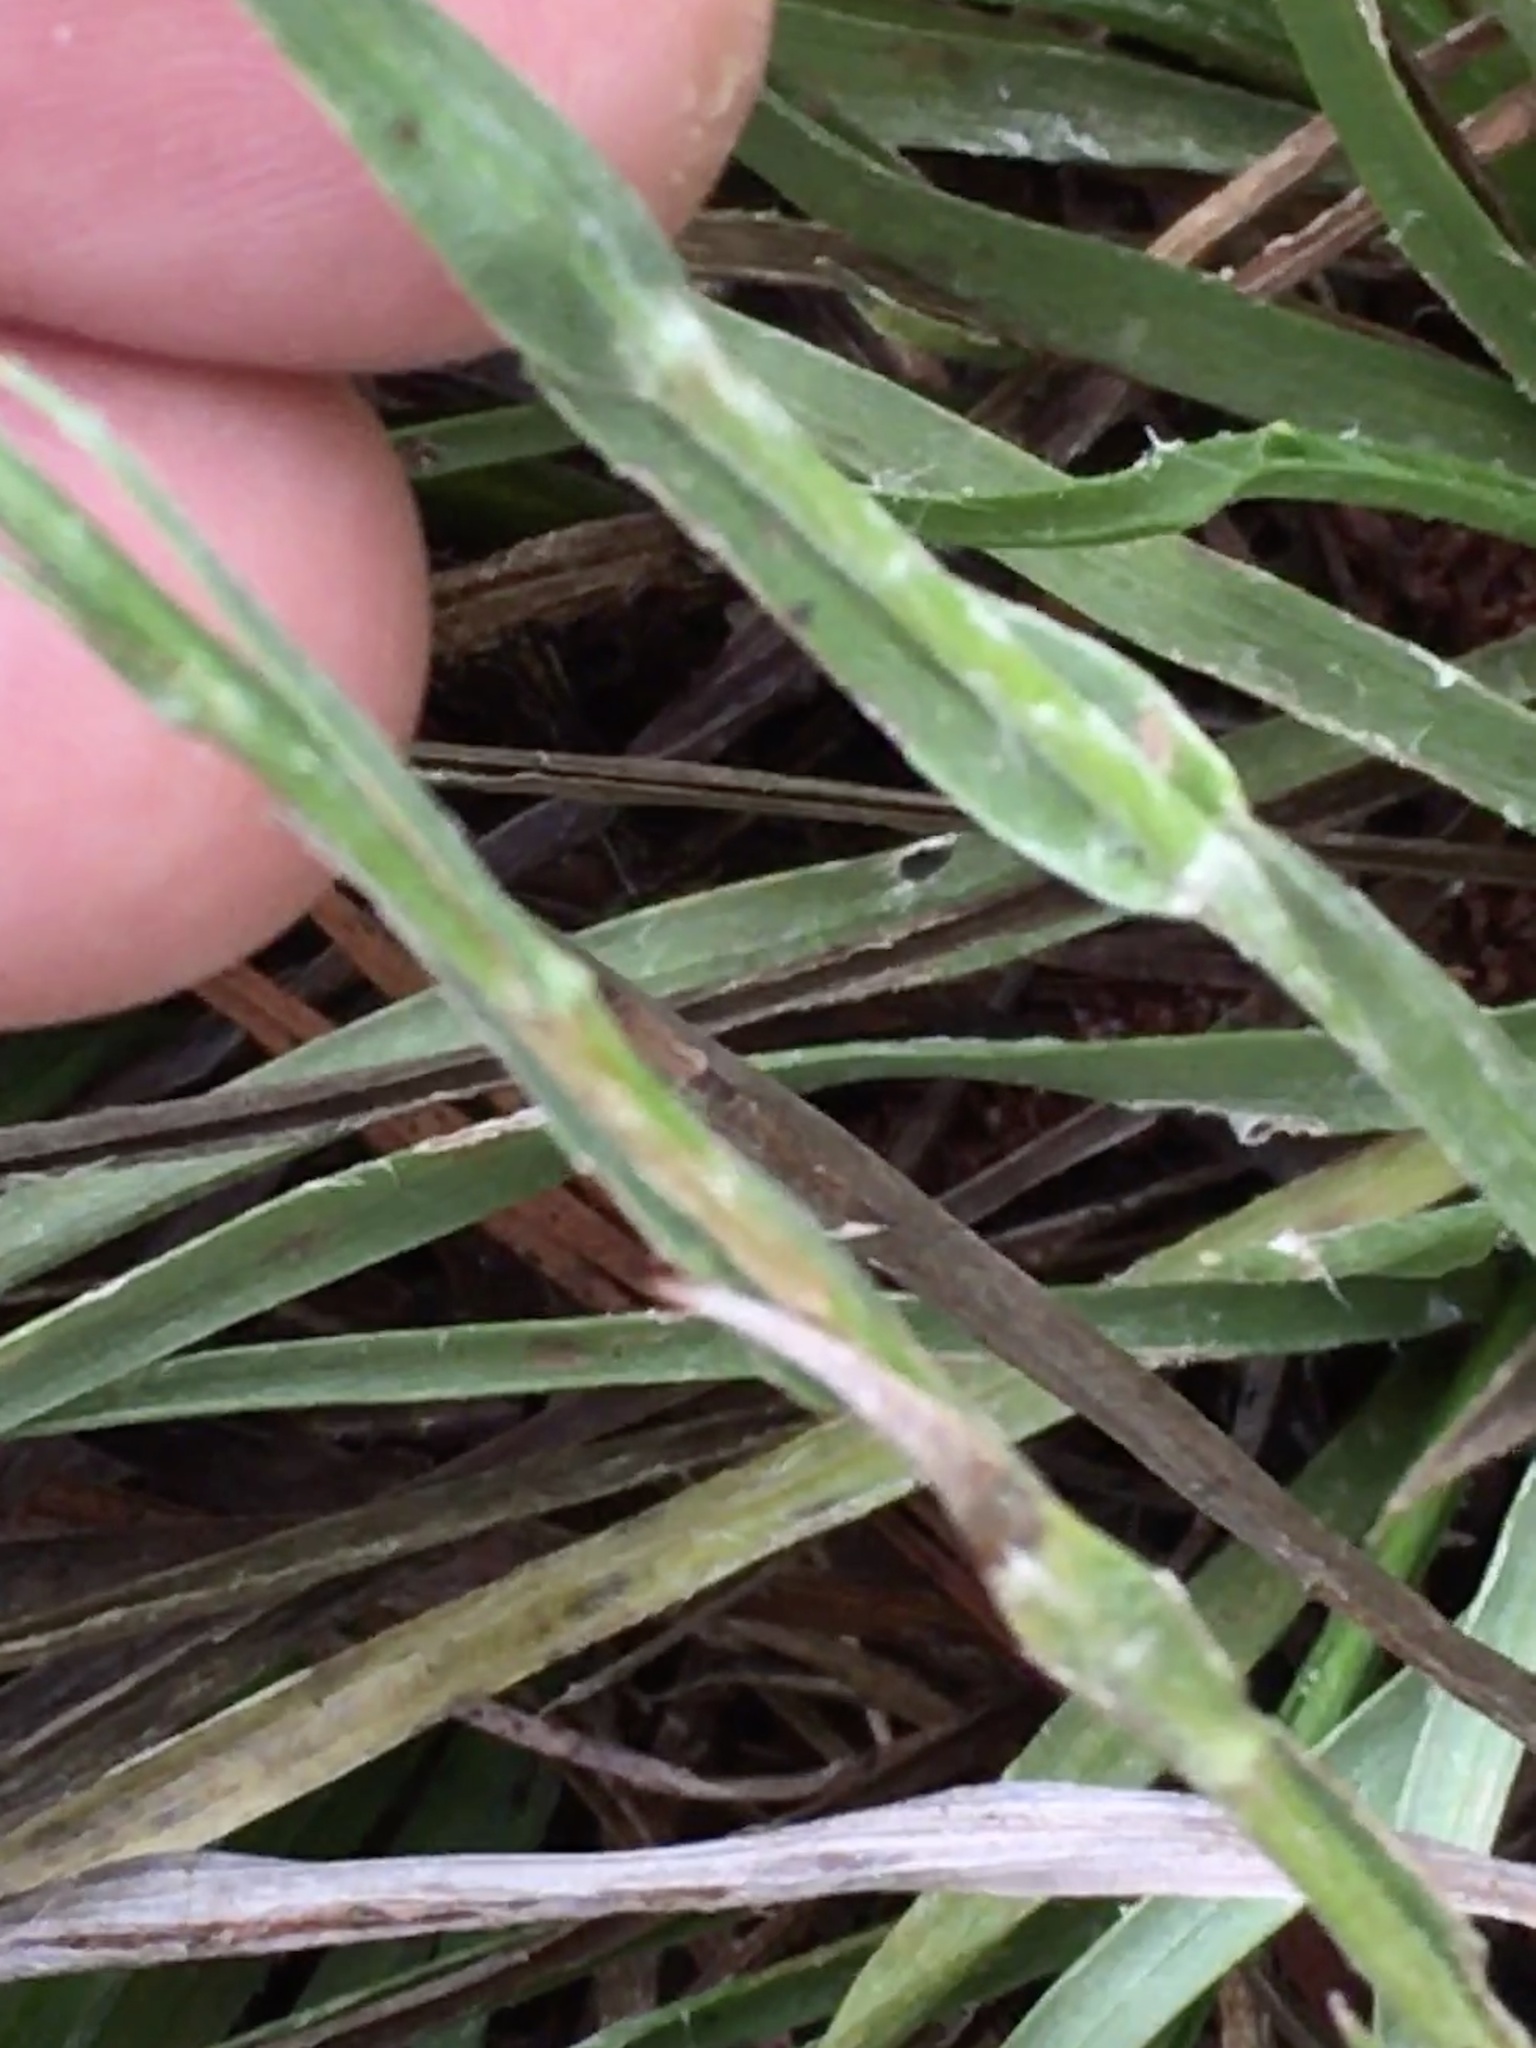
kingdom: Plantae
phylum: Tracheophyta
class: Magnoliopsida
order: Asterales
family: Asteraceae
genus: Pityopsis
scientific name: Pityopsis aspera
